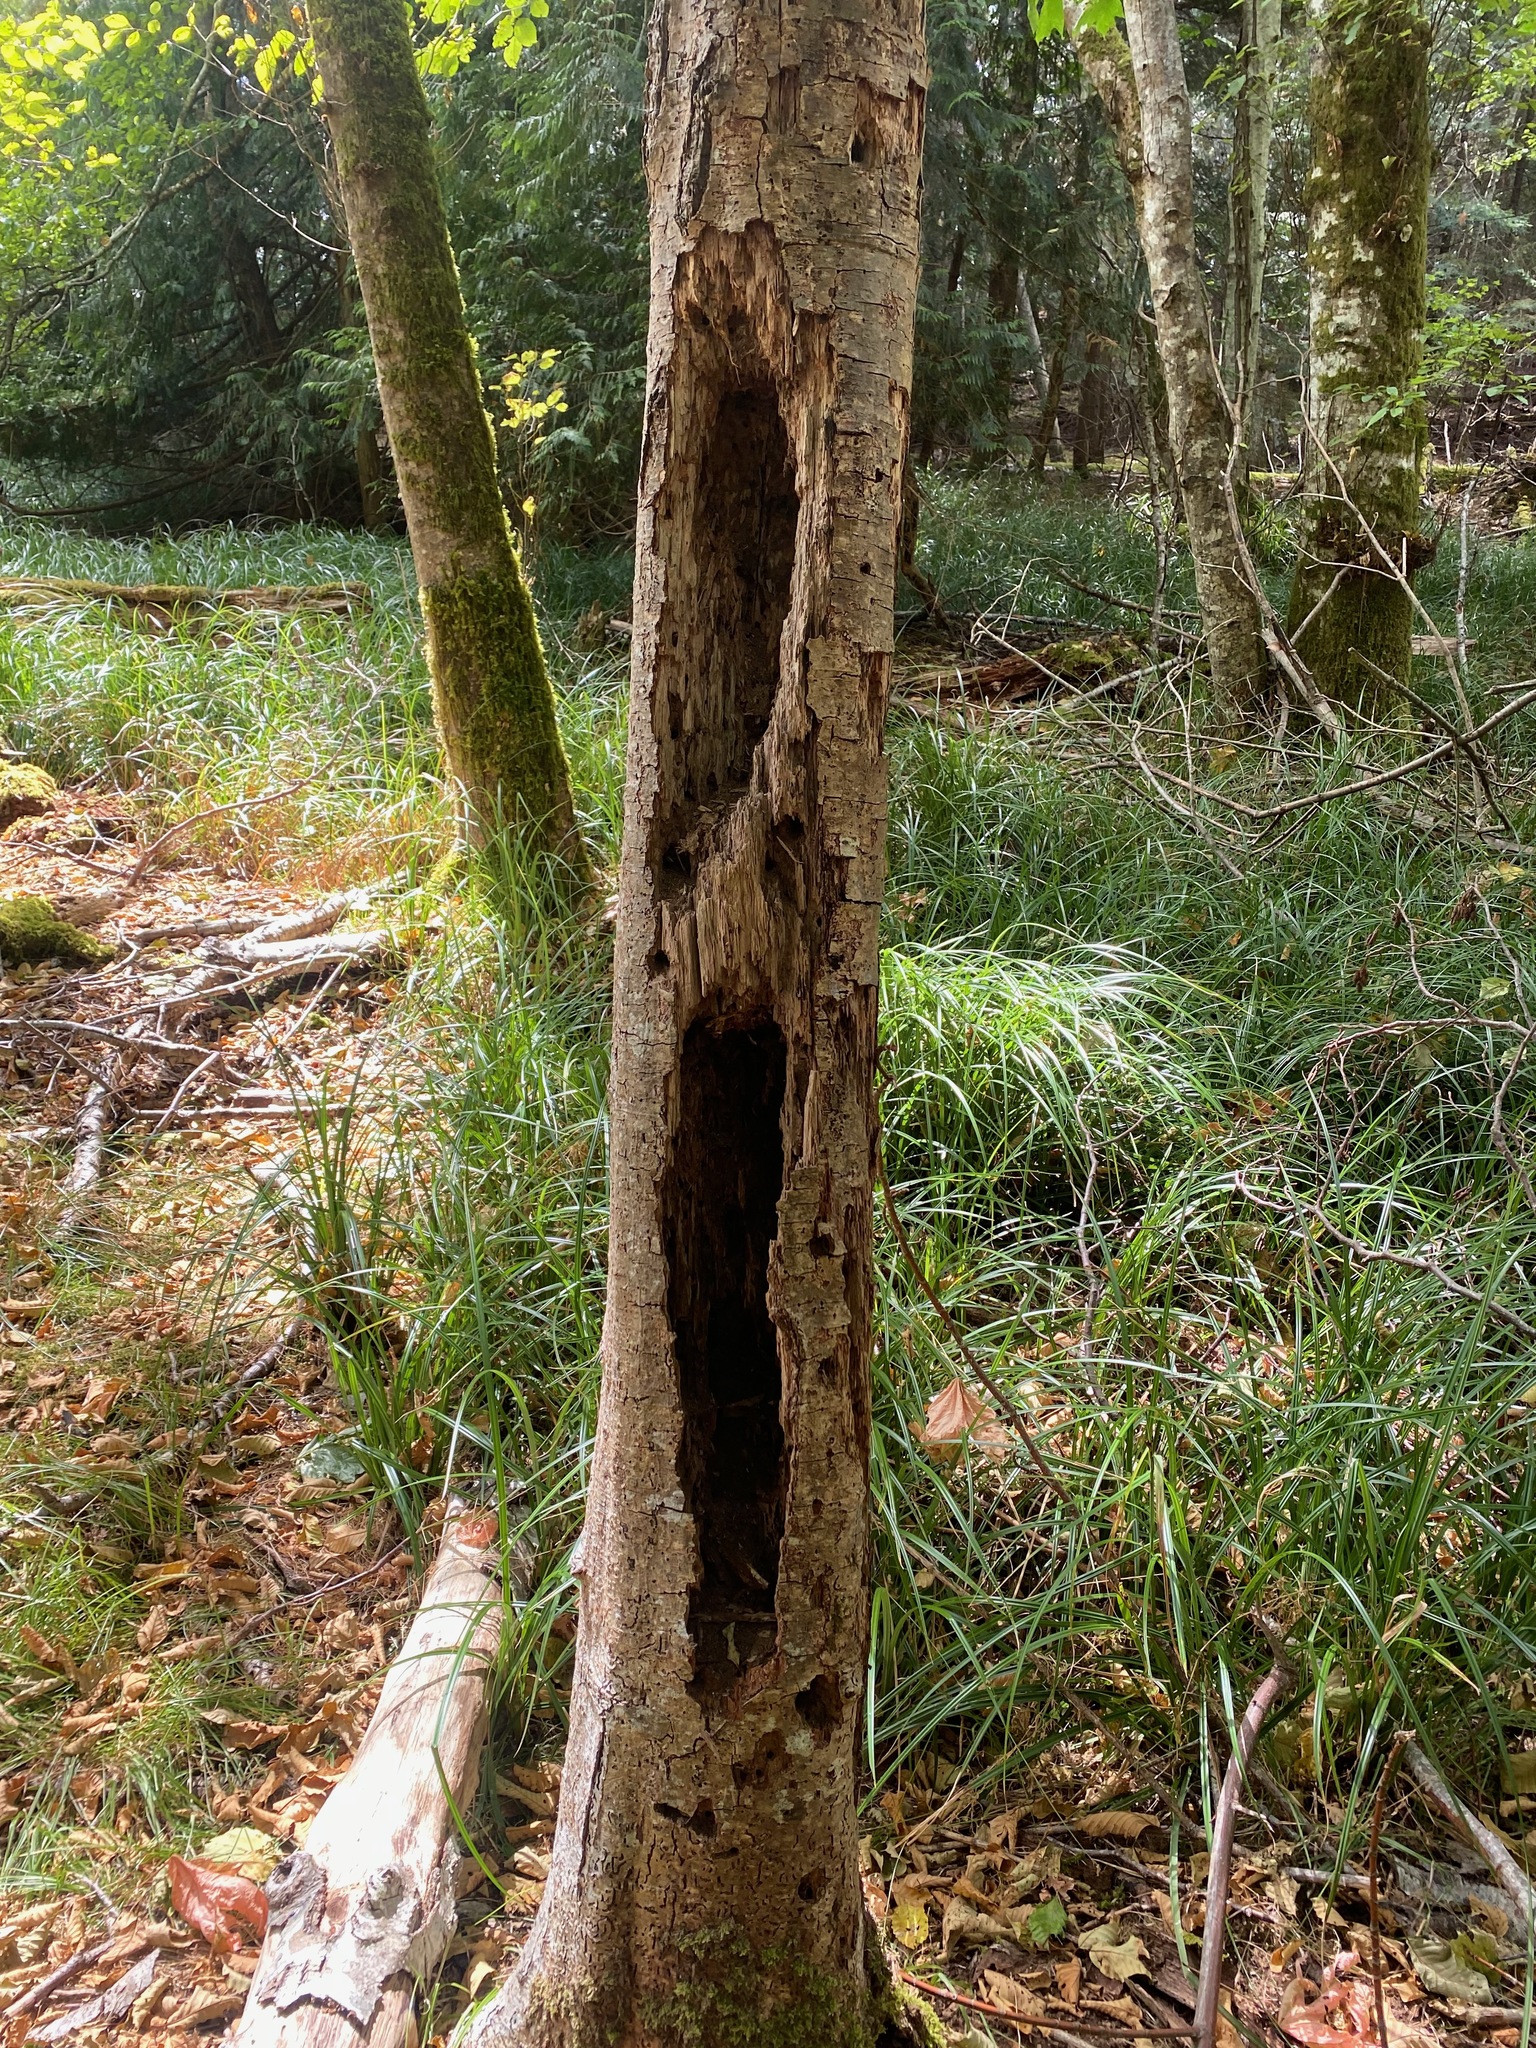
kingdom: Animalia
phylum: Chordata
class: Aves
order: Piciformes
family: Picidae
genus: Dryocopus
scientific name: Dryocopus pileatus
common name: Pileated woodpecker
